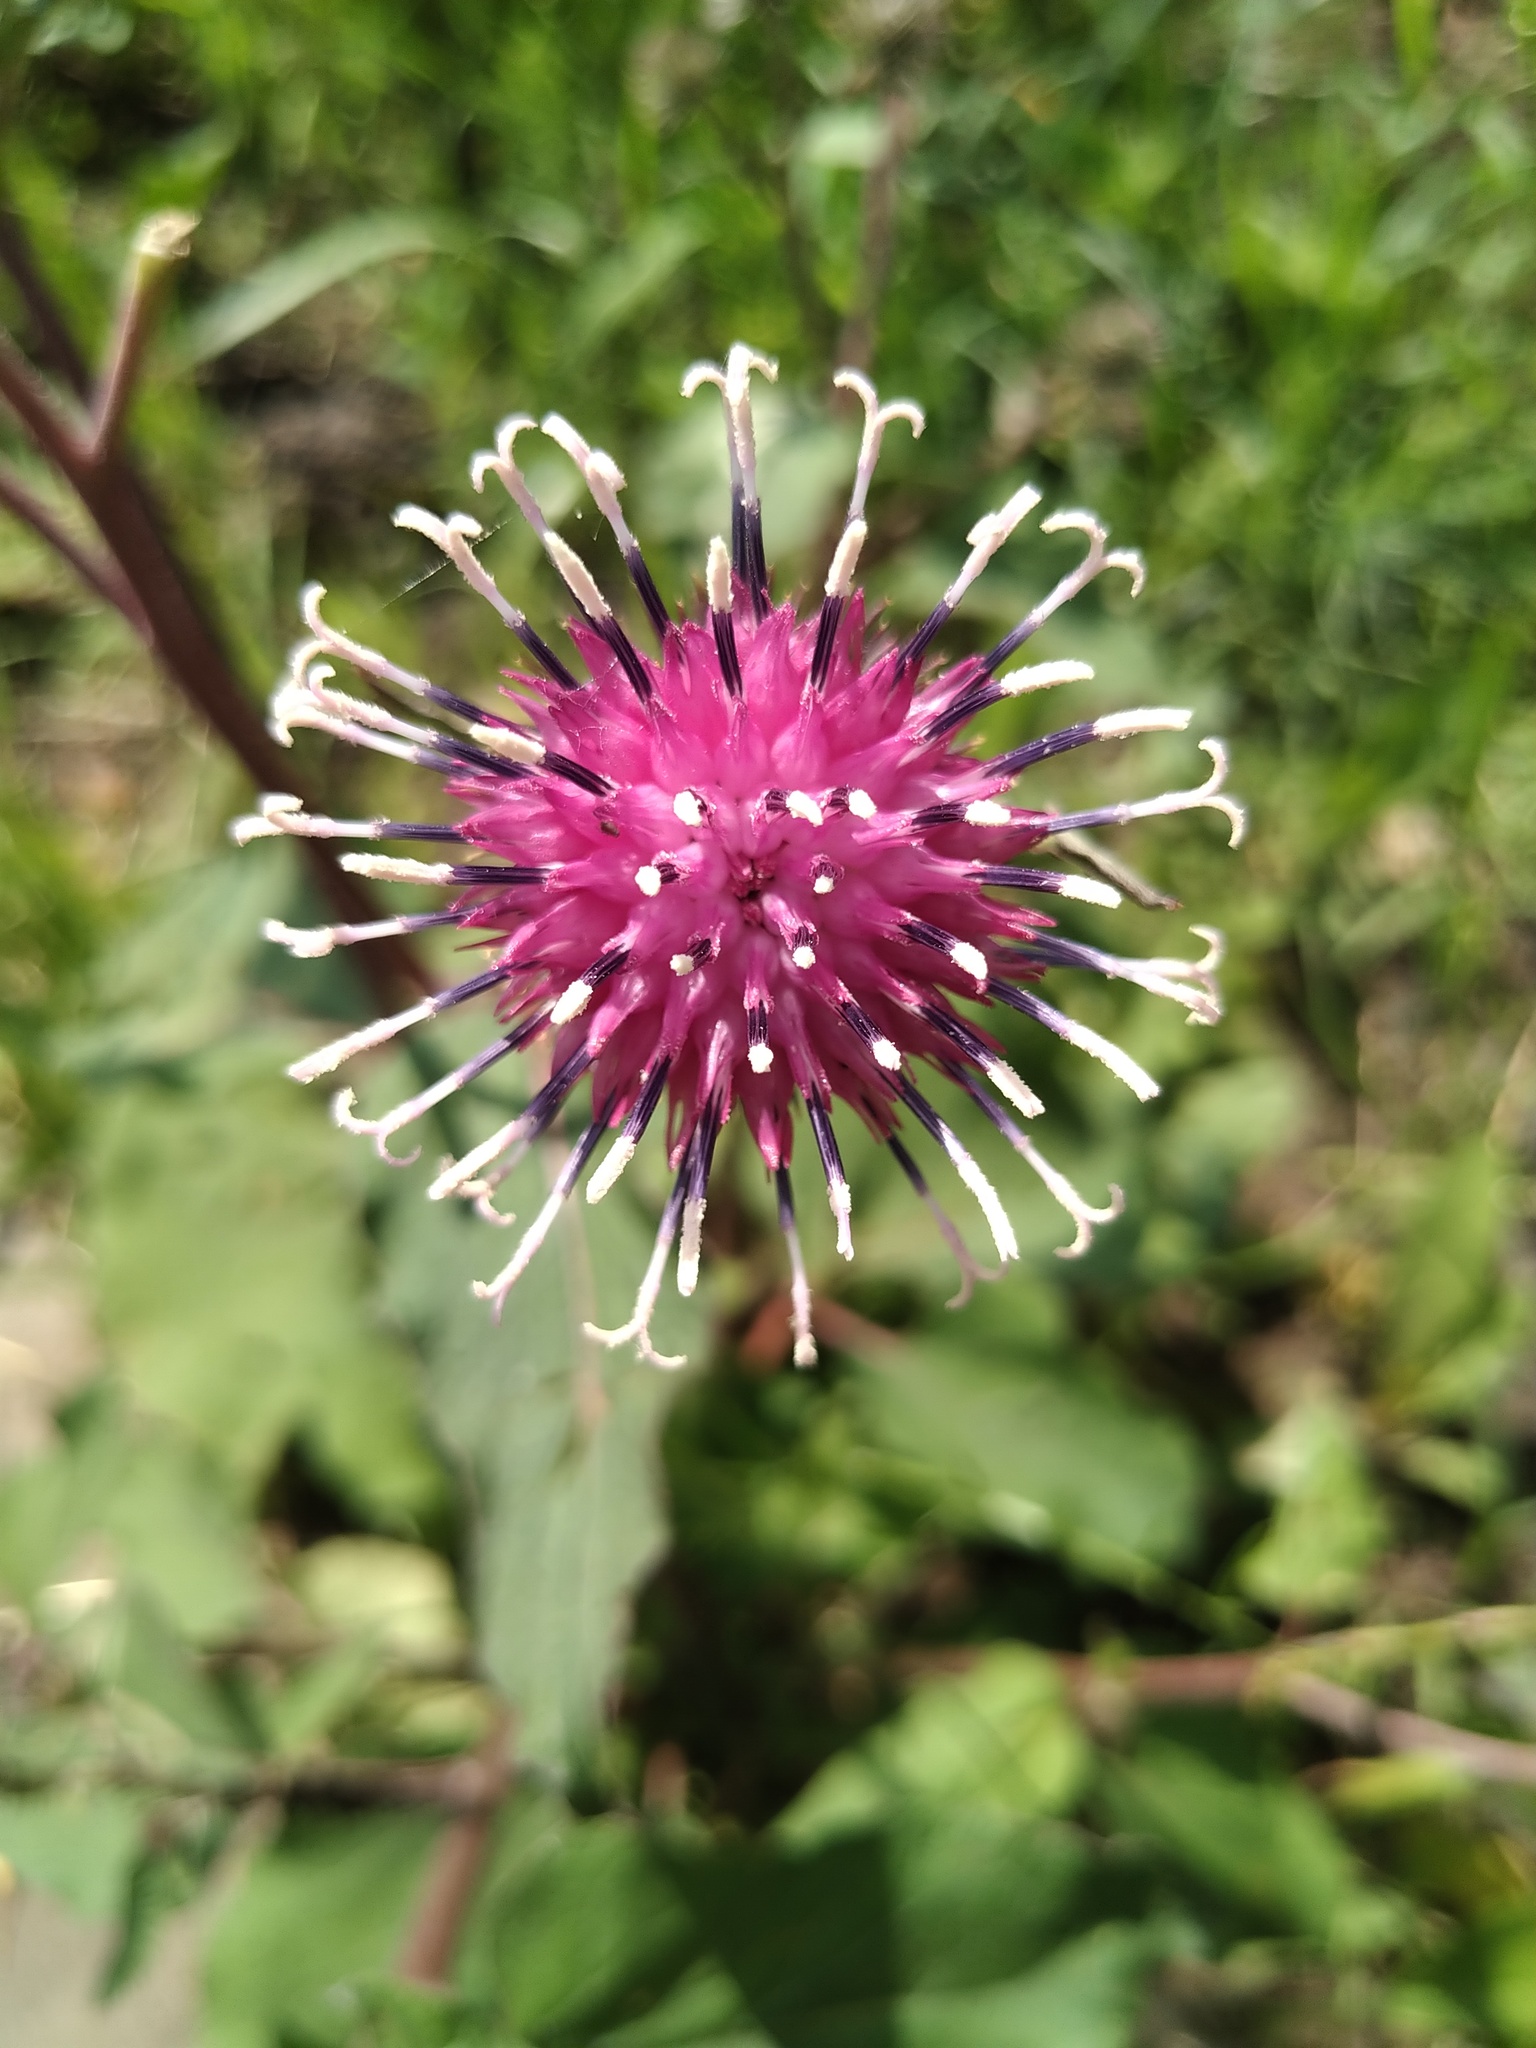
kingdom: Plantae
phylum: Tracheophyta
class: Magnoliopsida
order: Asterales
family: Asteraceae
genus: Arctium
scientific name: Arctium
